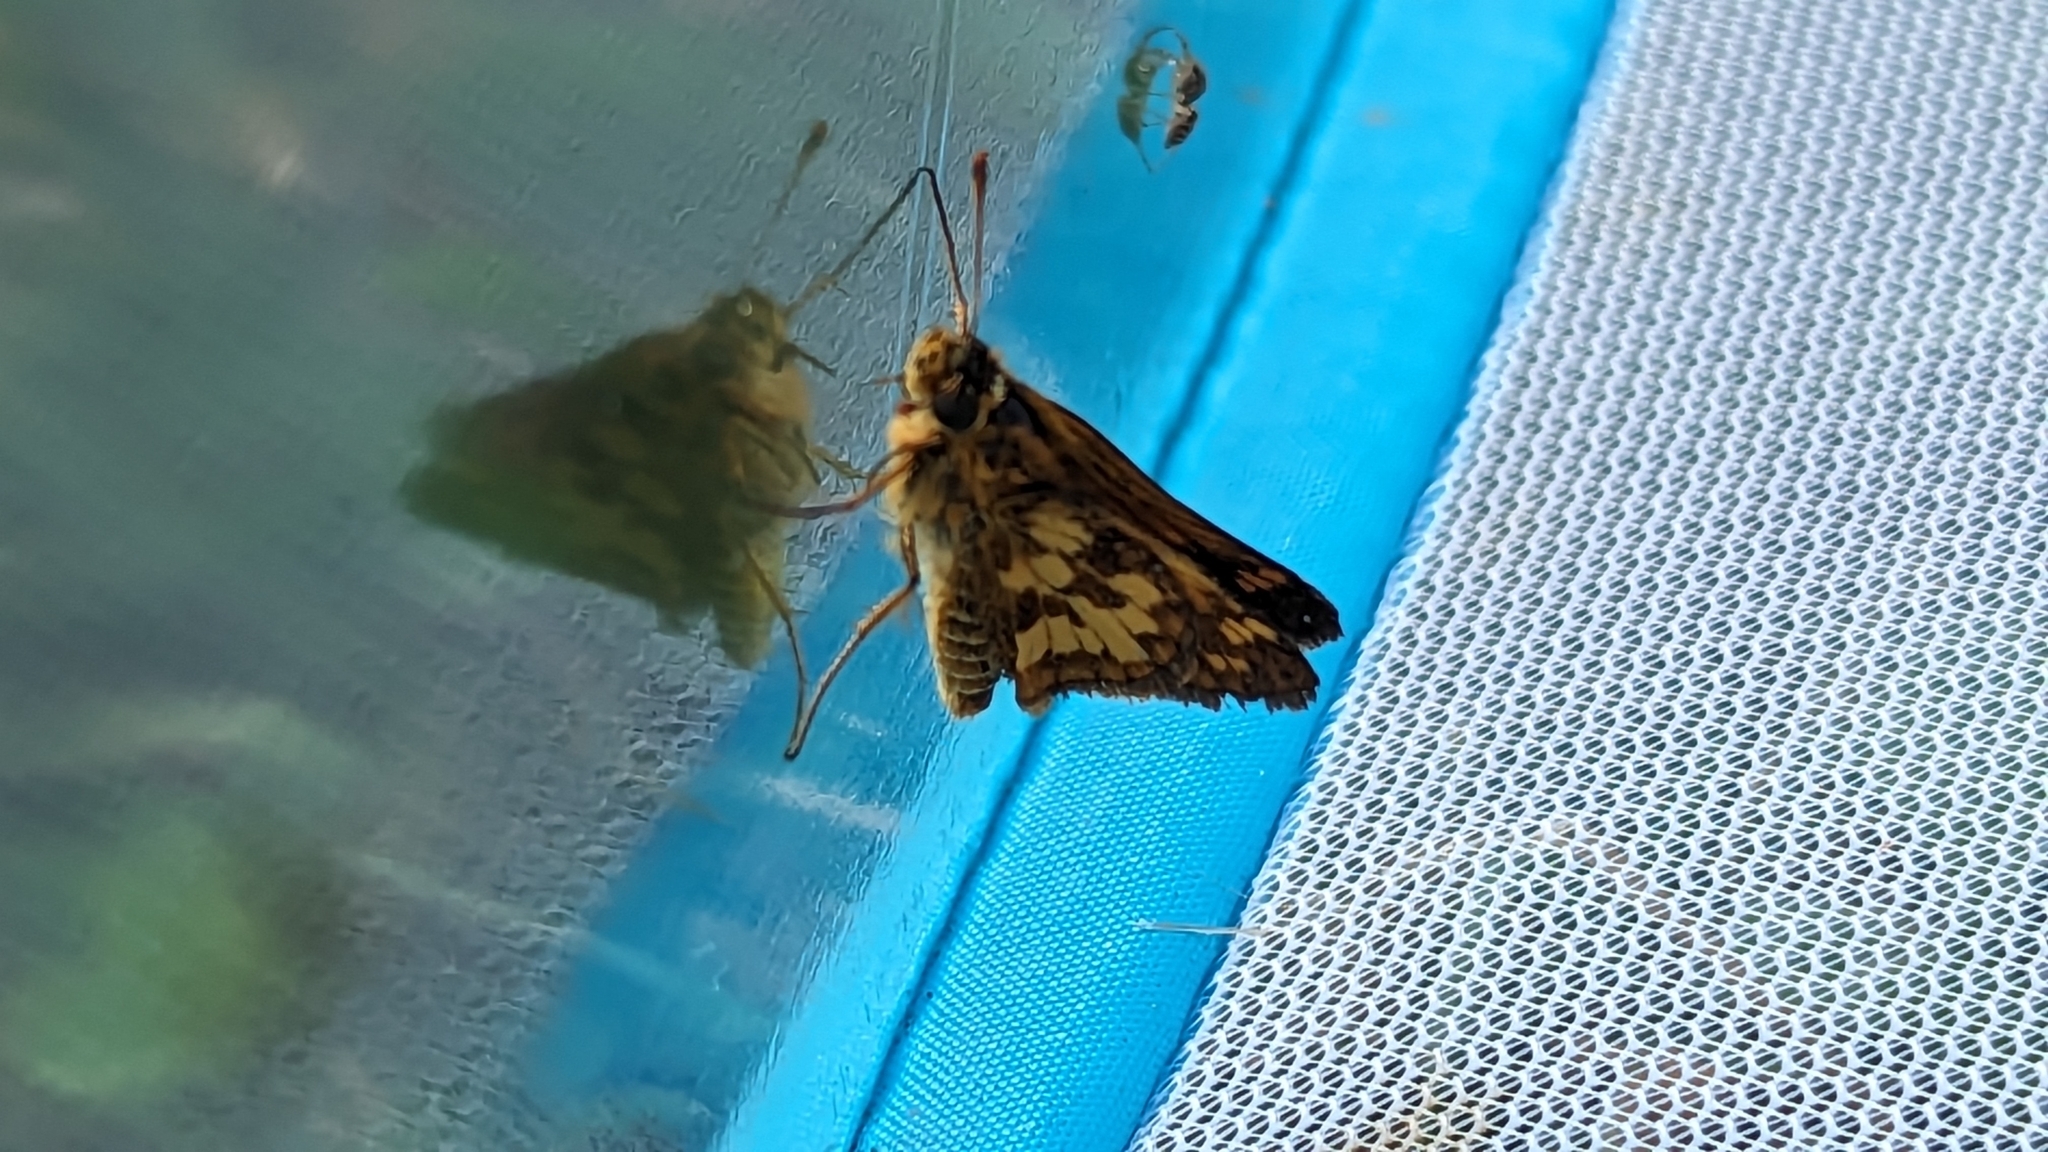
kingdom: Animalia
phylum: Arthropoda
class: Insecta
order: Lepidoptera
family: Hesperiidae
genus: Polites
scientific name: Polites coras
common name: Peck's skipper
